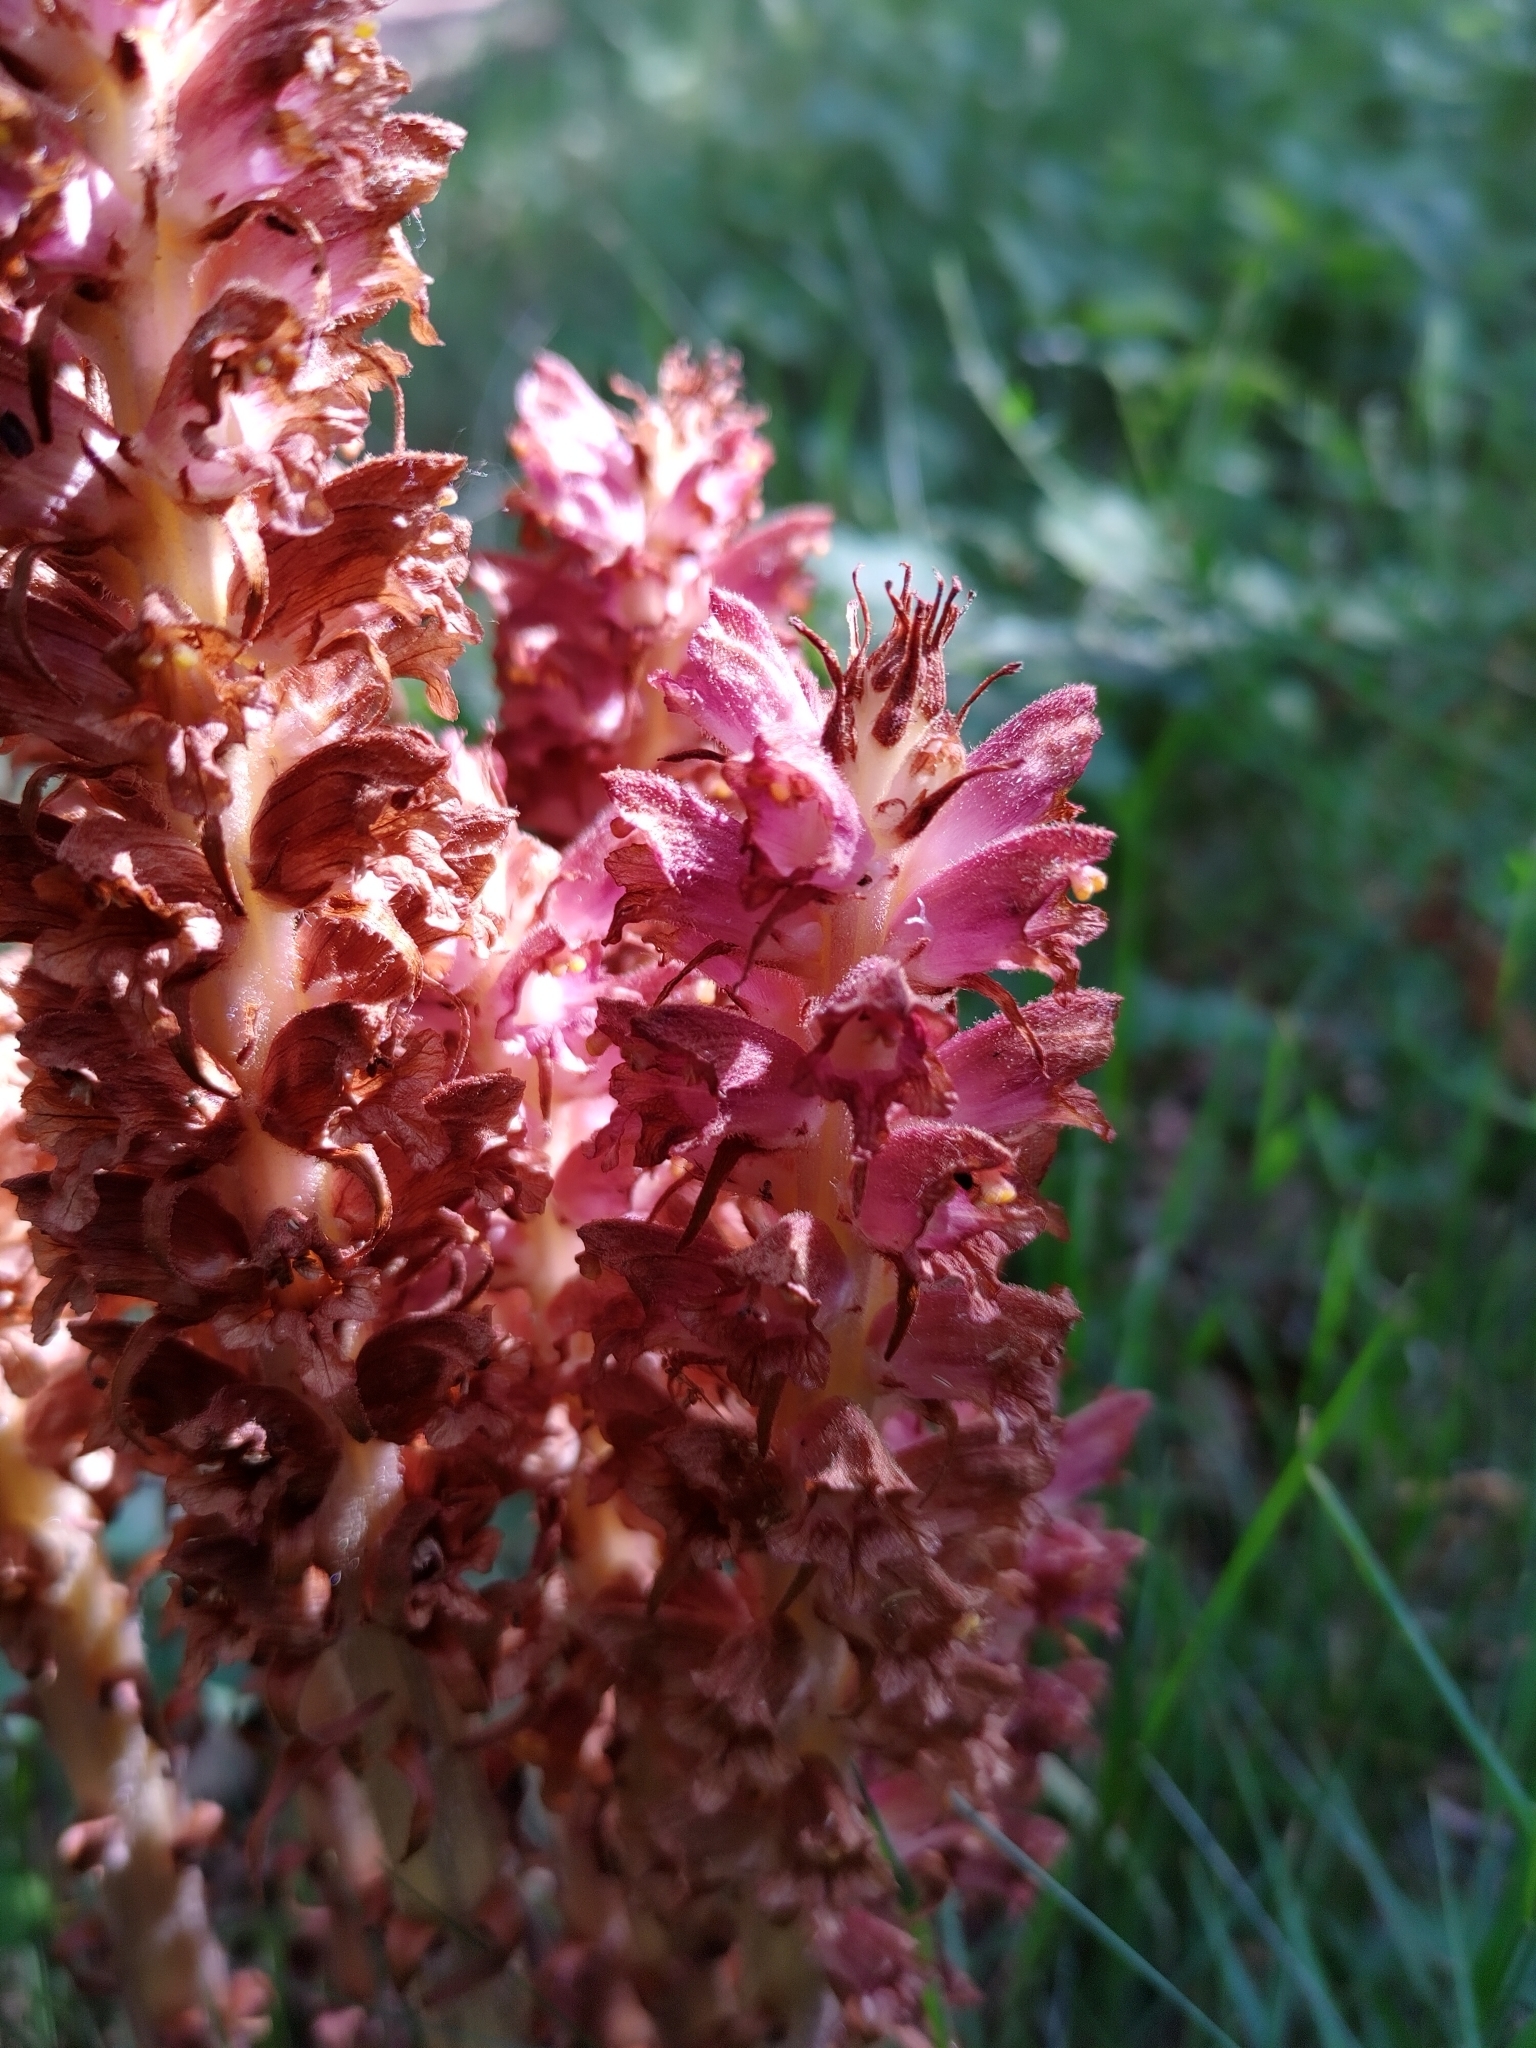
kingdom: Plantae
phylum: Tracheophyta
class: Magnoliopsida
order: Lamiales
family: Orobanchaceae
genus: Orobanche
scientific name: Orobanche rapum-genistae
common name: Greater broomrape
